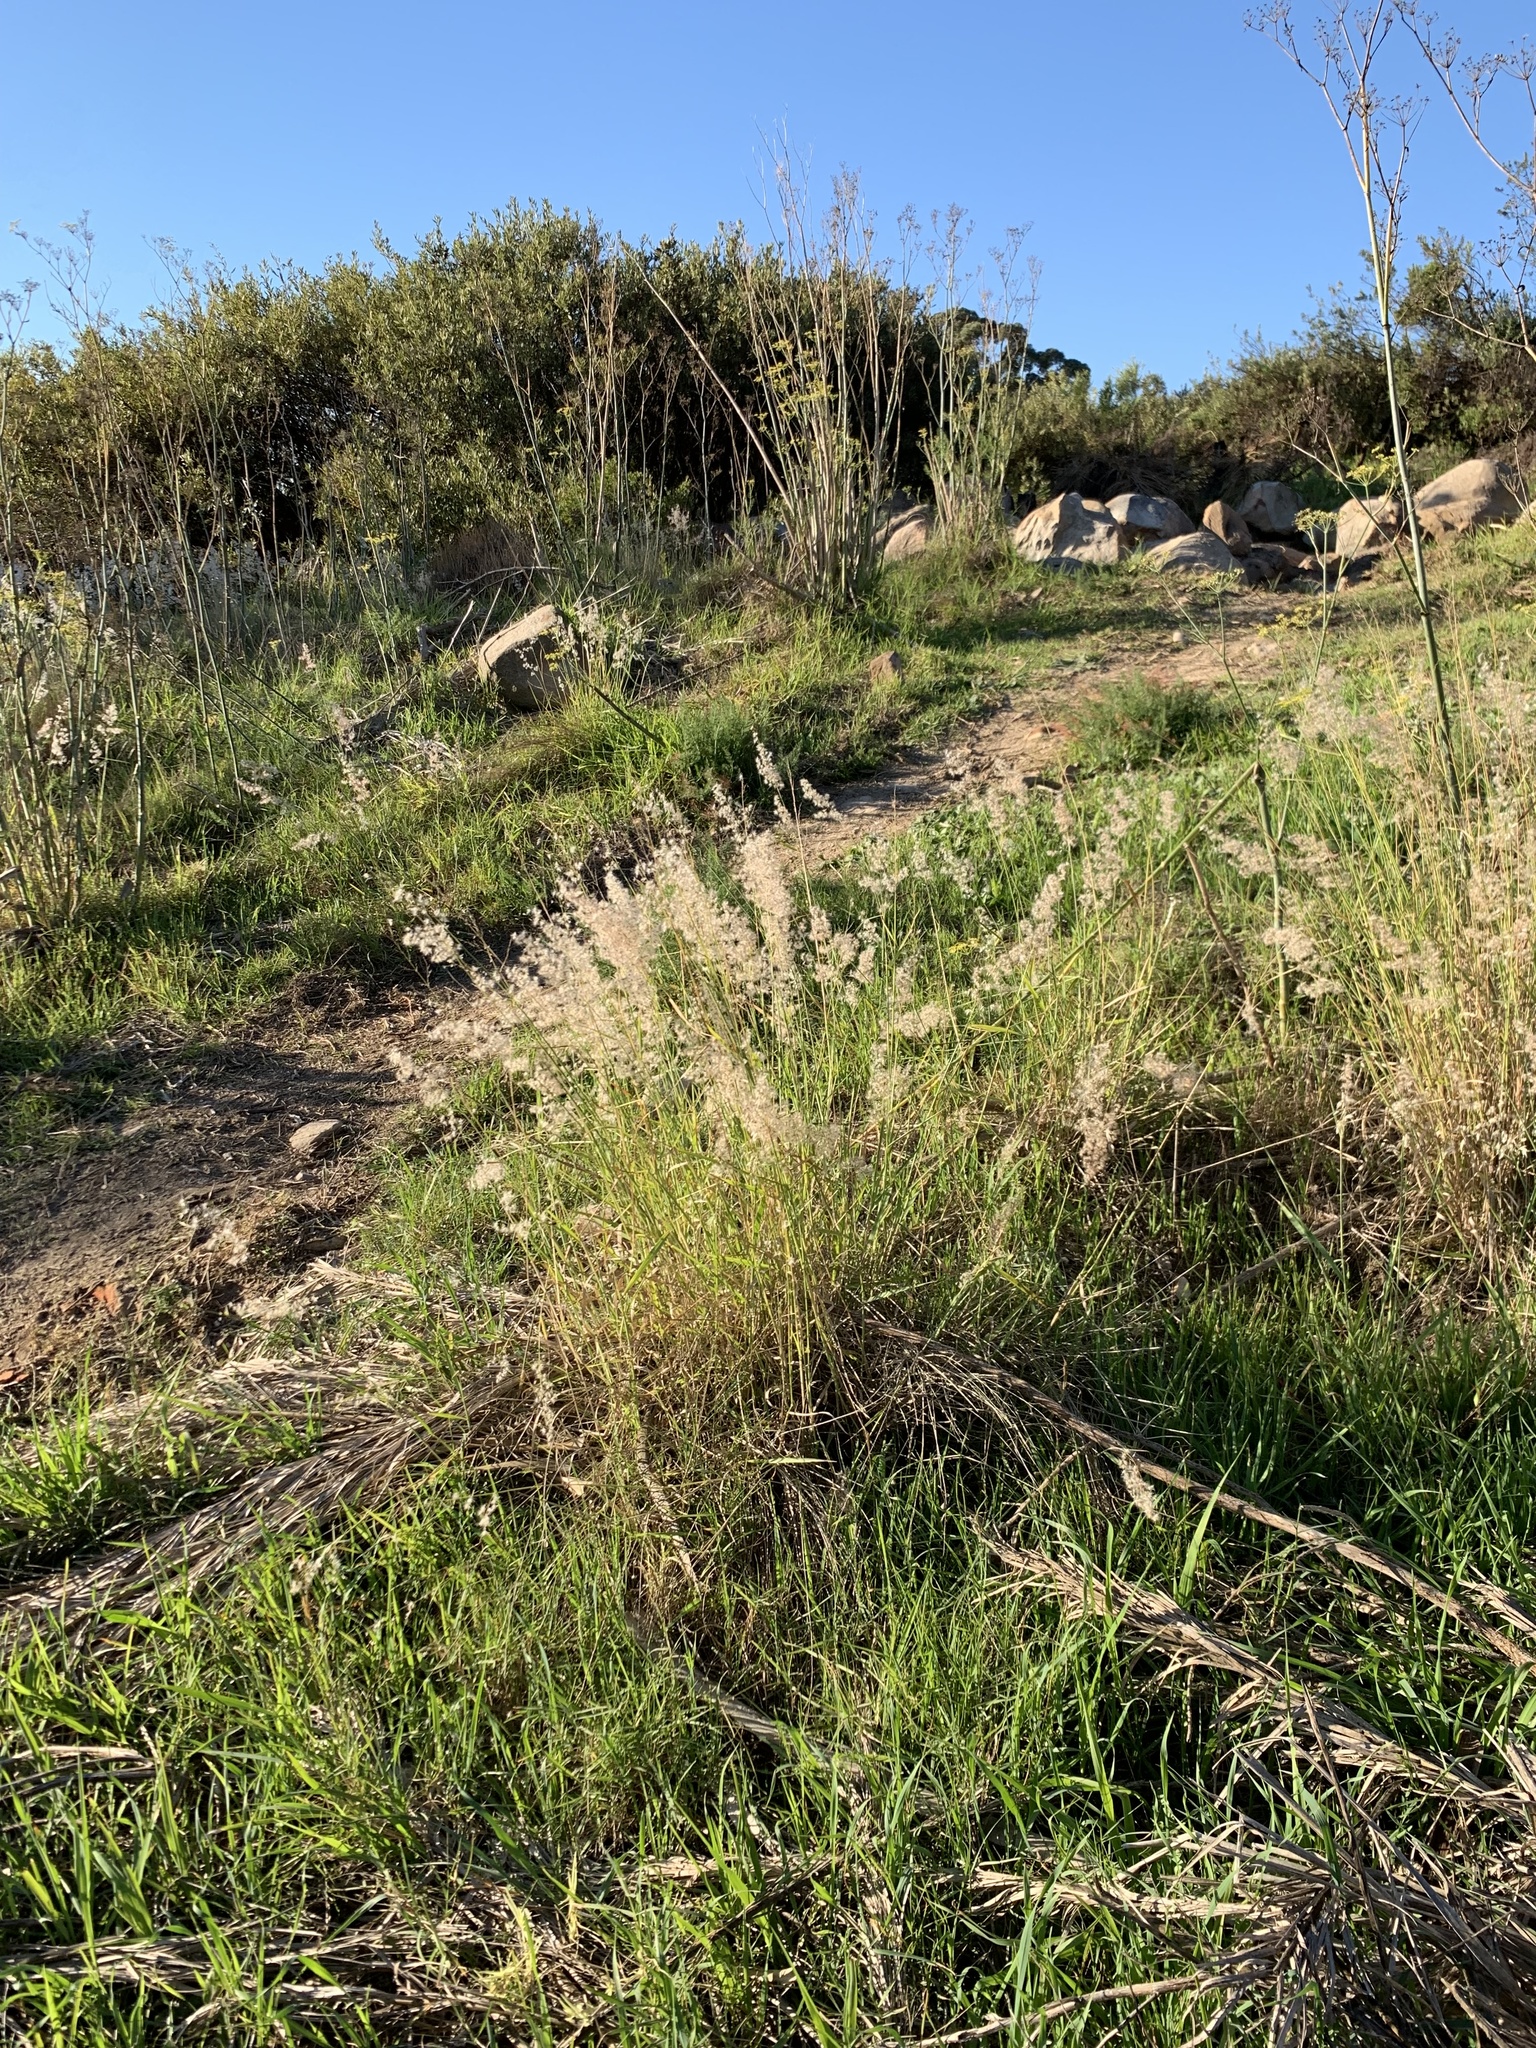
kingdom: Plantae
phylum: Tracheophyta
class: Liliopsida
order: Poales
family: Poaceae
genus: Melinis
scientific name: Melinis repens
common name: Rose natal grass
